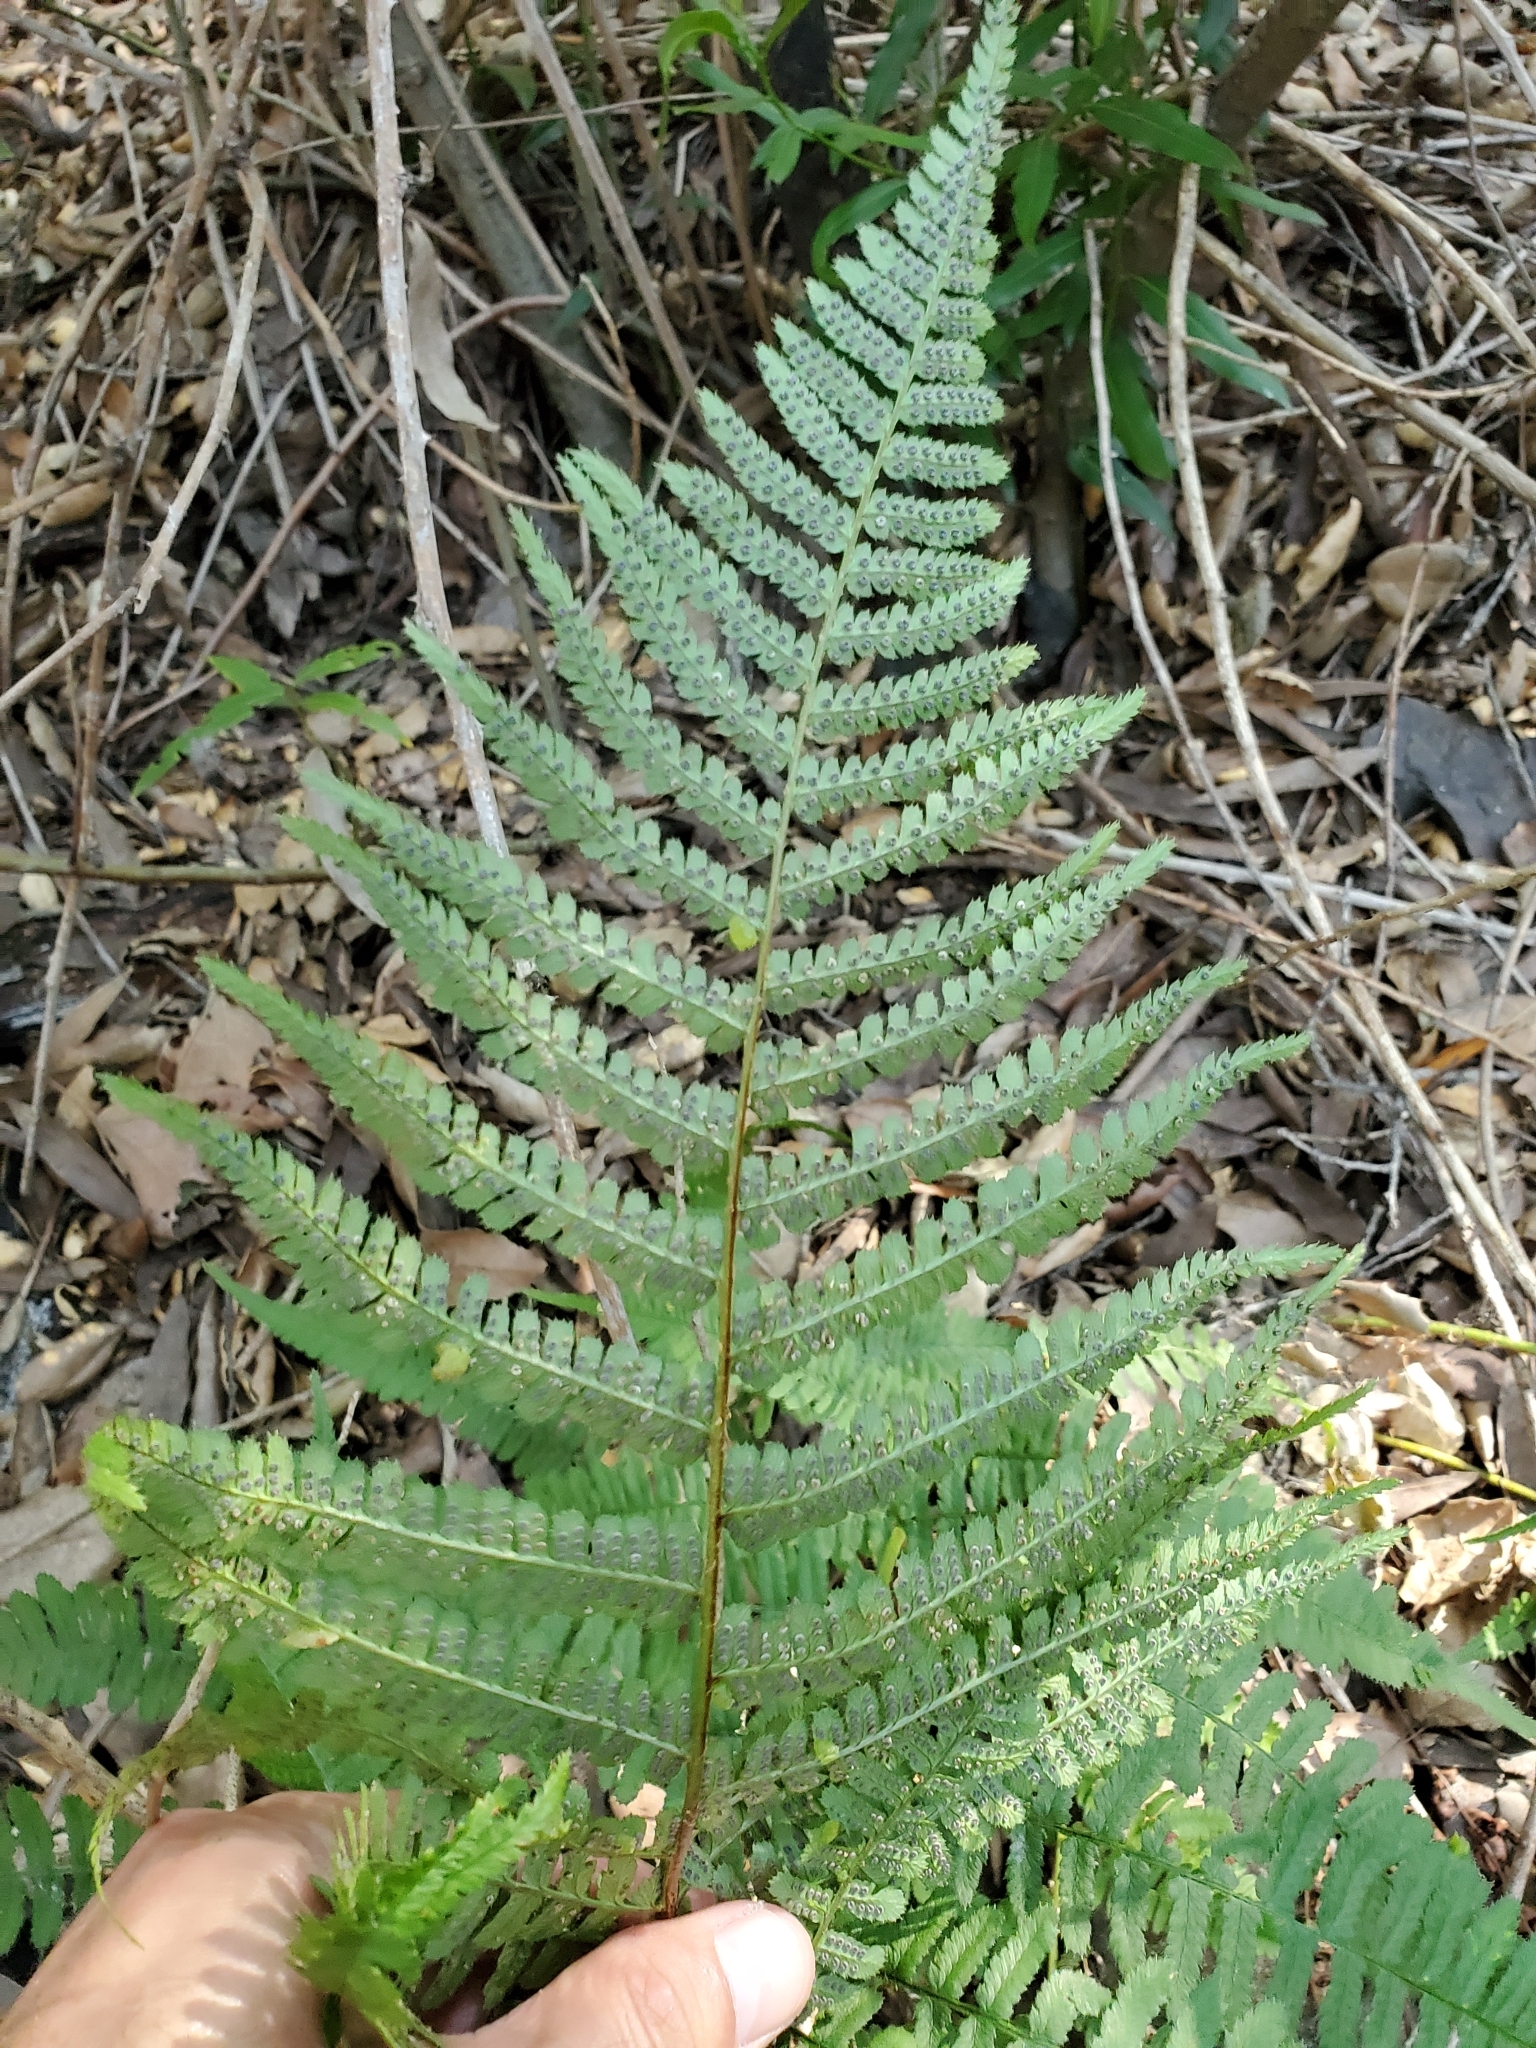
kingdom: Plantae
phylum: Tracheophyta
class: Polypodiopsida
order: Polypodiales
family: Dryopteridaceae
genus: Dryopteris
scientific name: Dryopteris arguta
